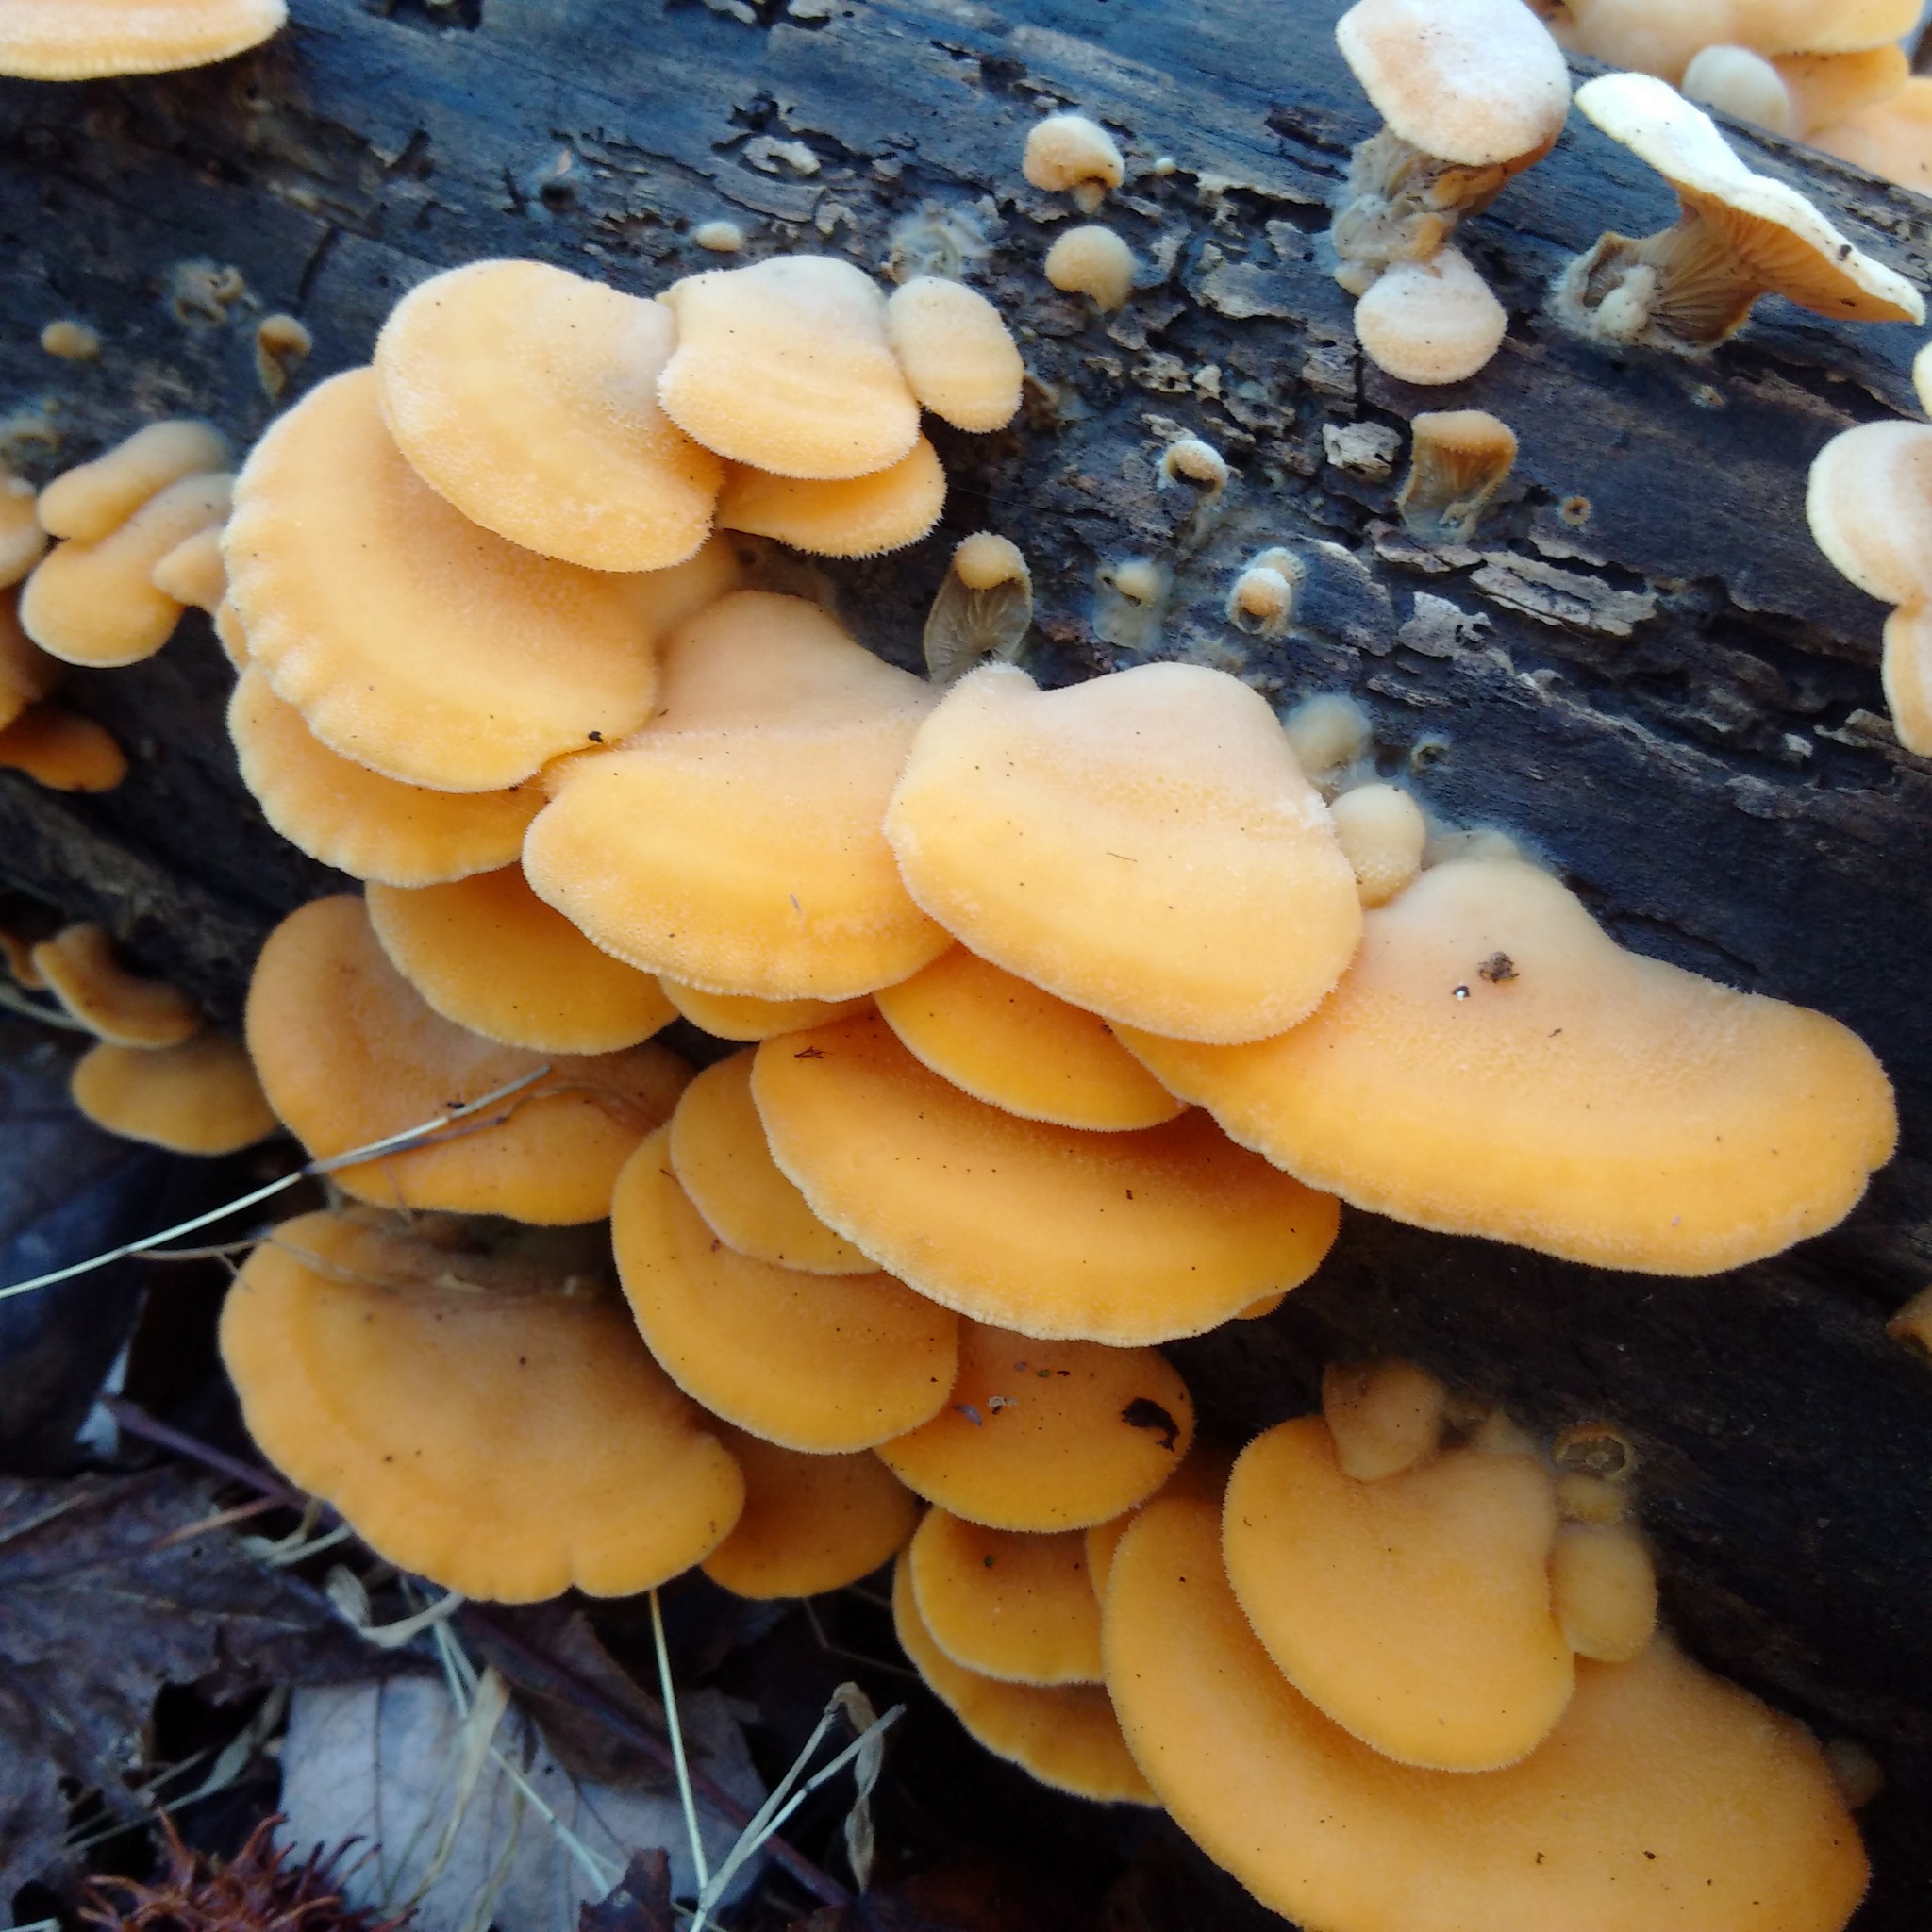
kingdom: Fungi
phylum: Basidiomycota
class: Agaricomycetes
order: Agaricales
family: Phyllotopsidaceae
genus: Phyllotopsis
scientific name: Phyllotopsis nidulans
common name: Orange mock oyster
